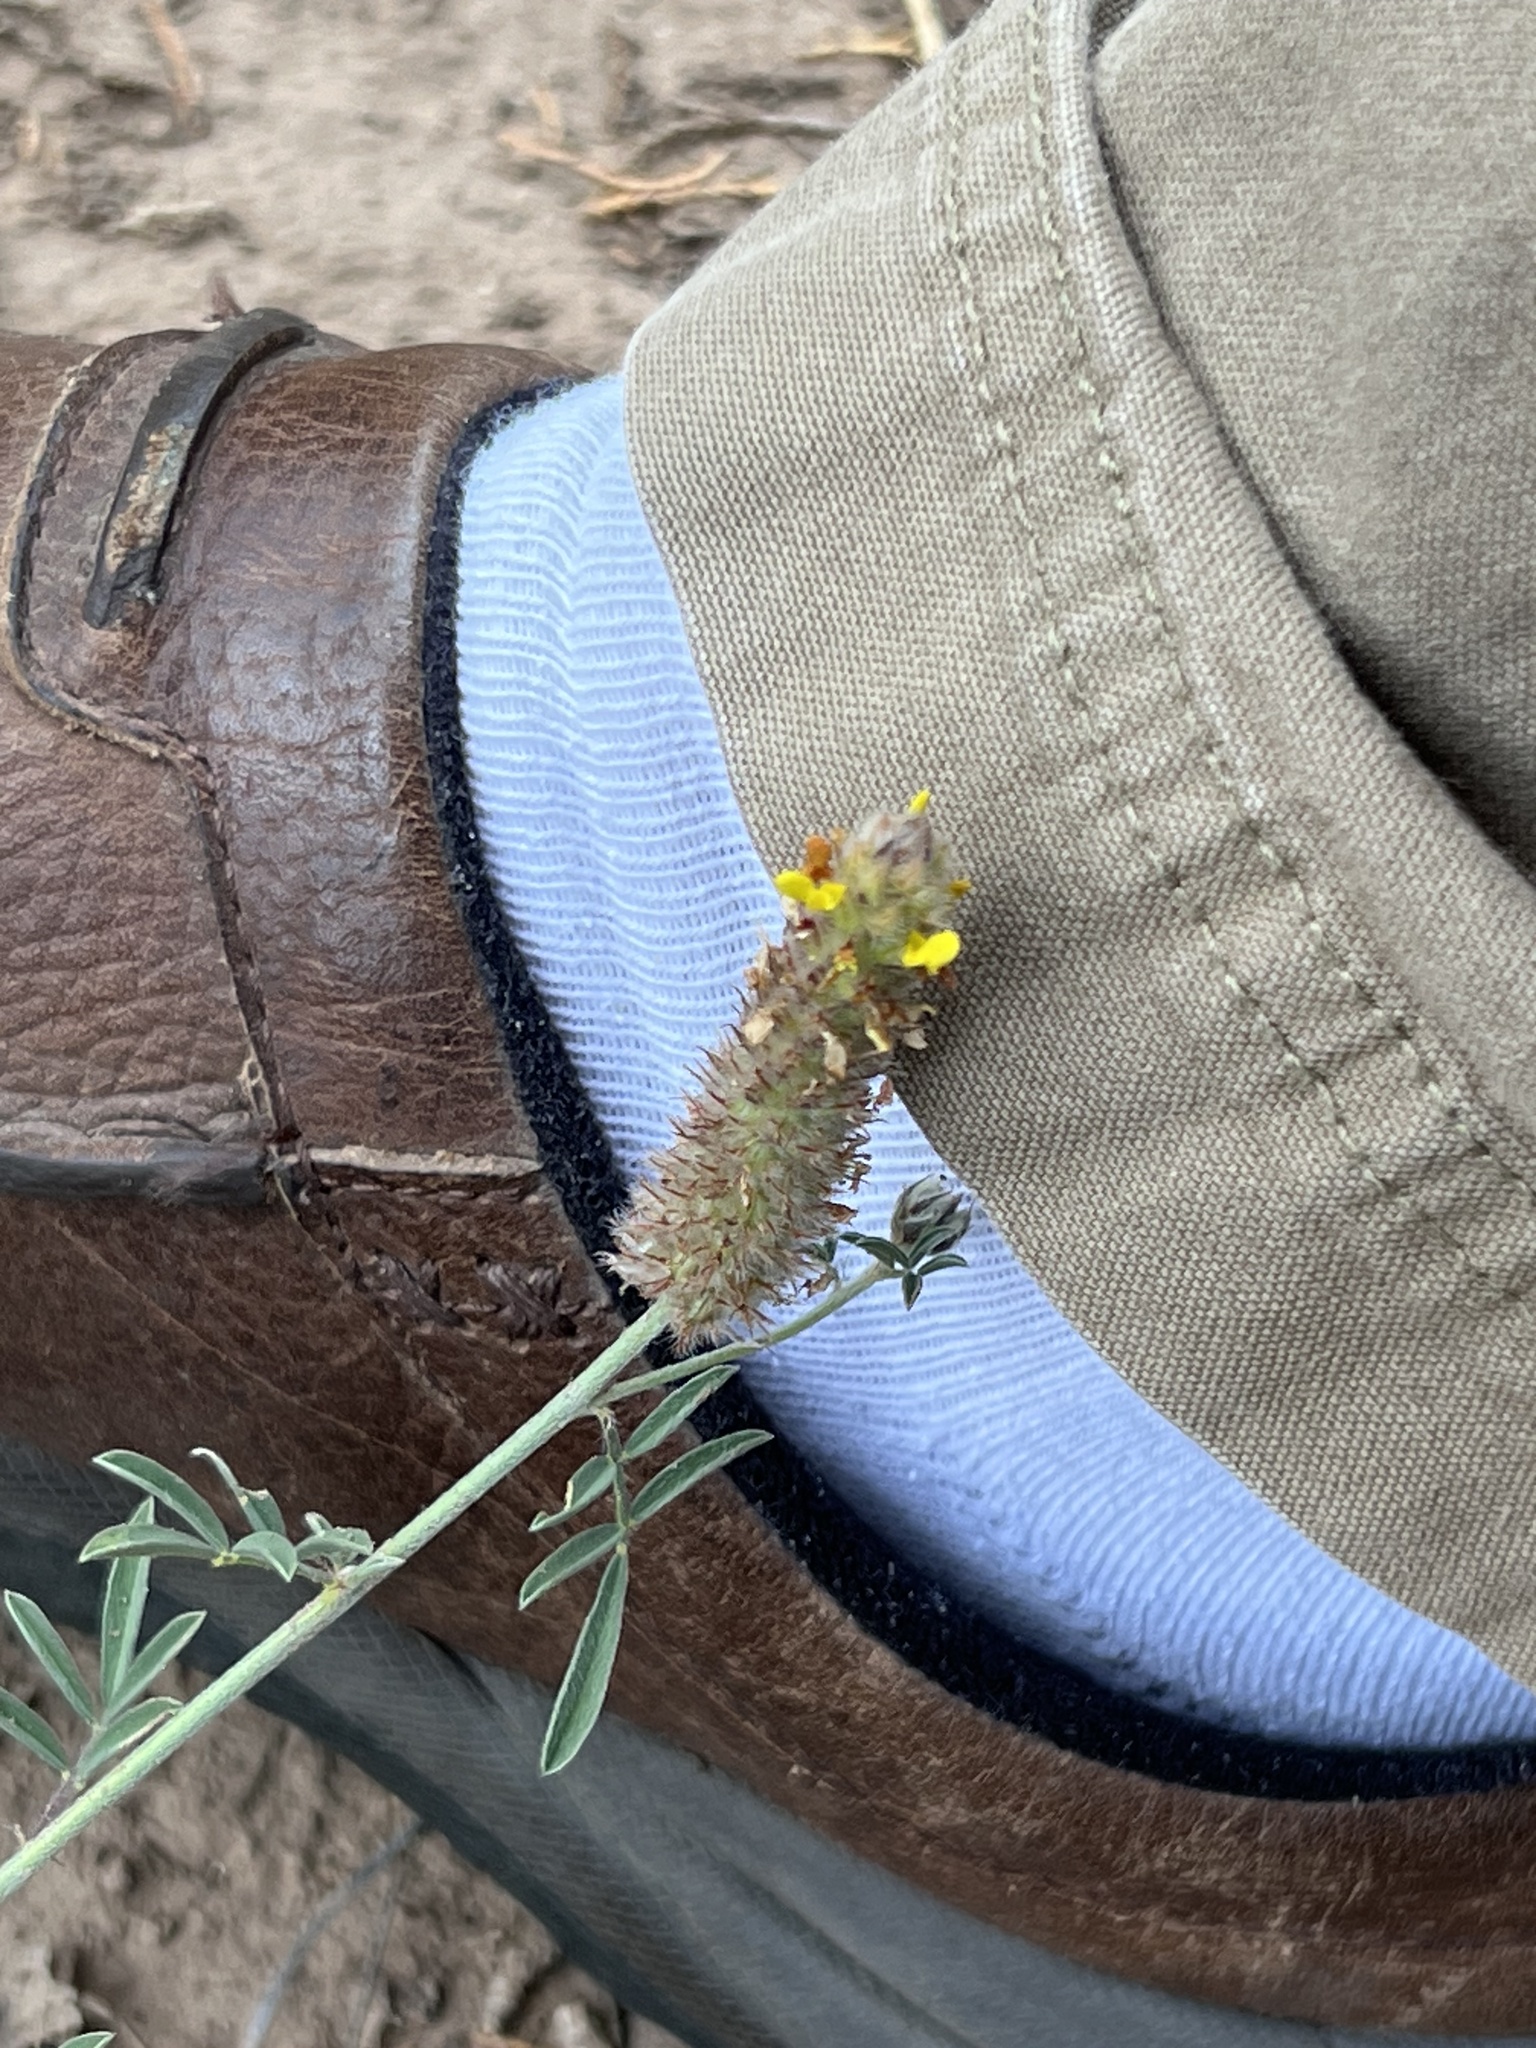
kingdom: Plantae
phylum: Tracheophyta
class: Magnoliopsida
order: Fabales
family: Fabaceae
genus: Dalea
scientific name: Dalea nana
